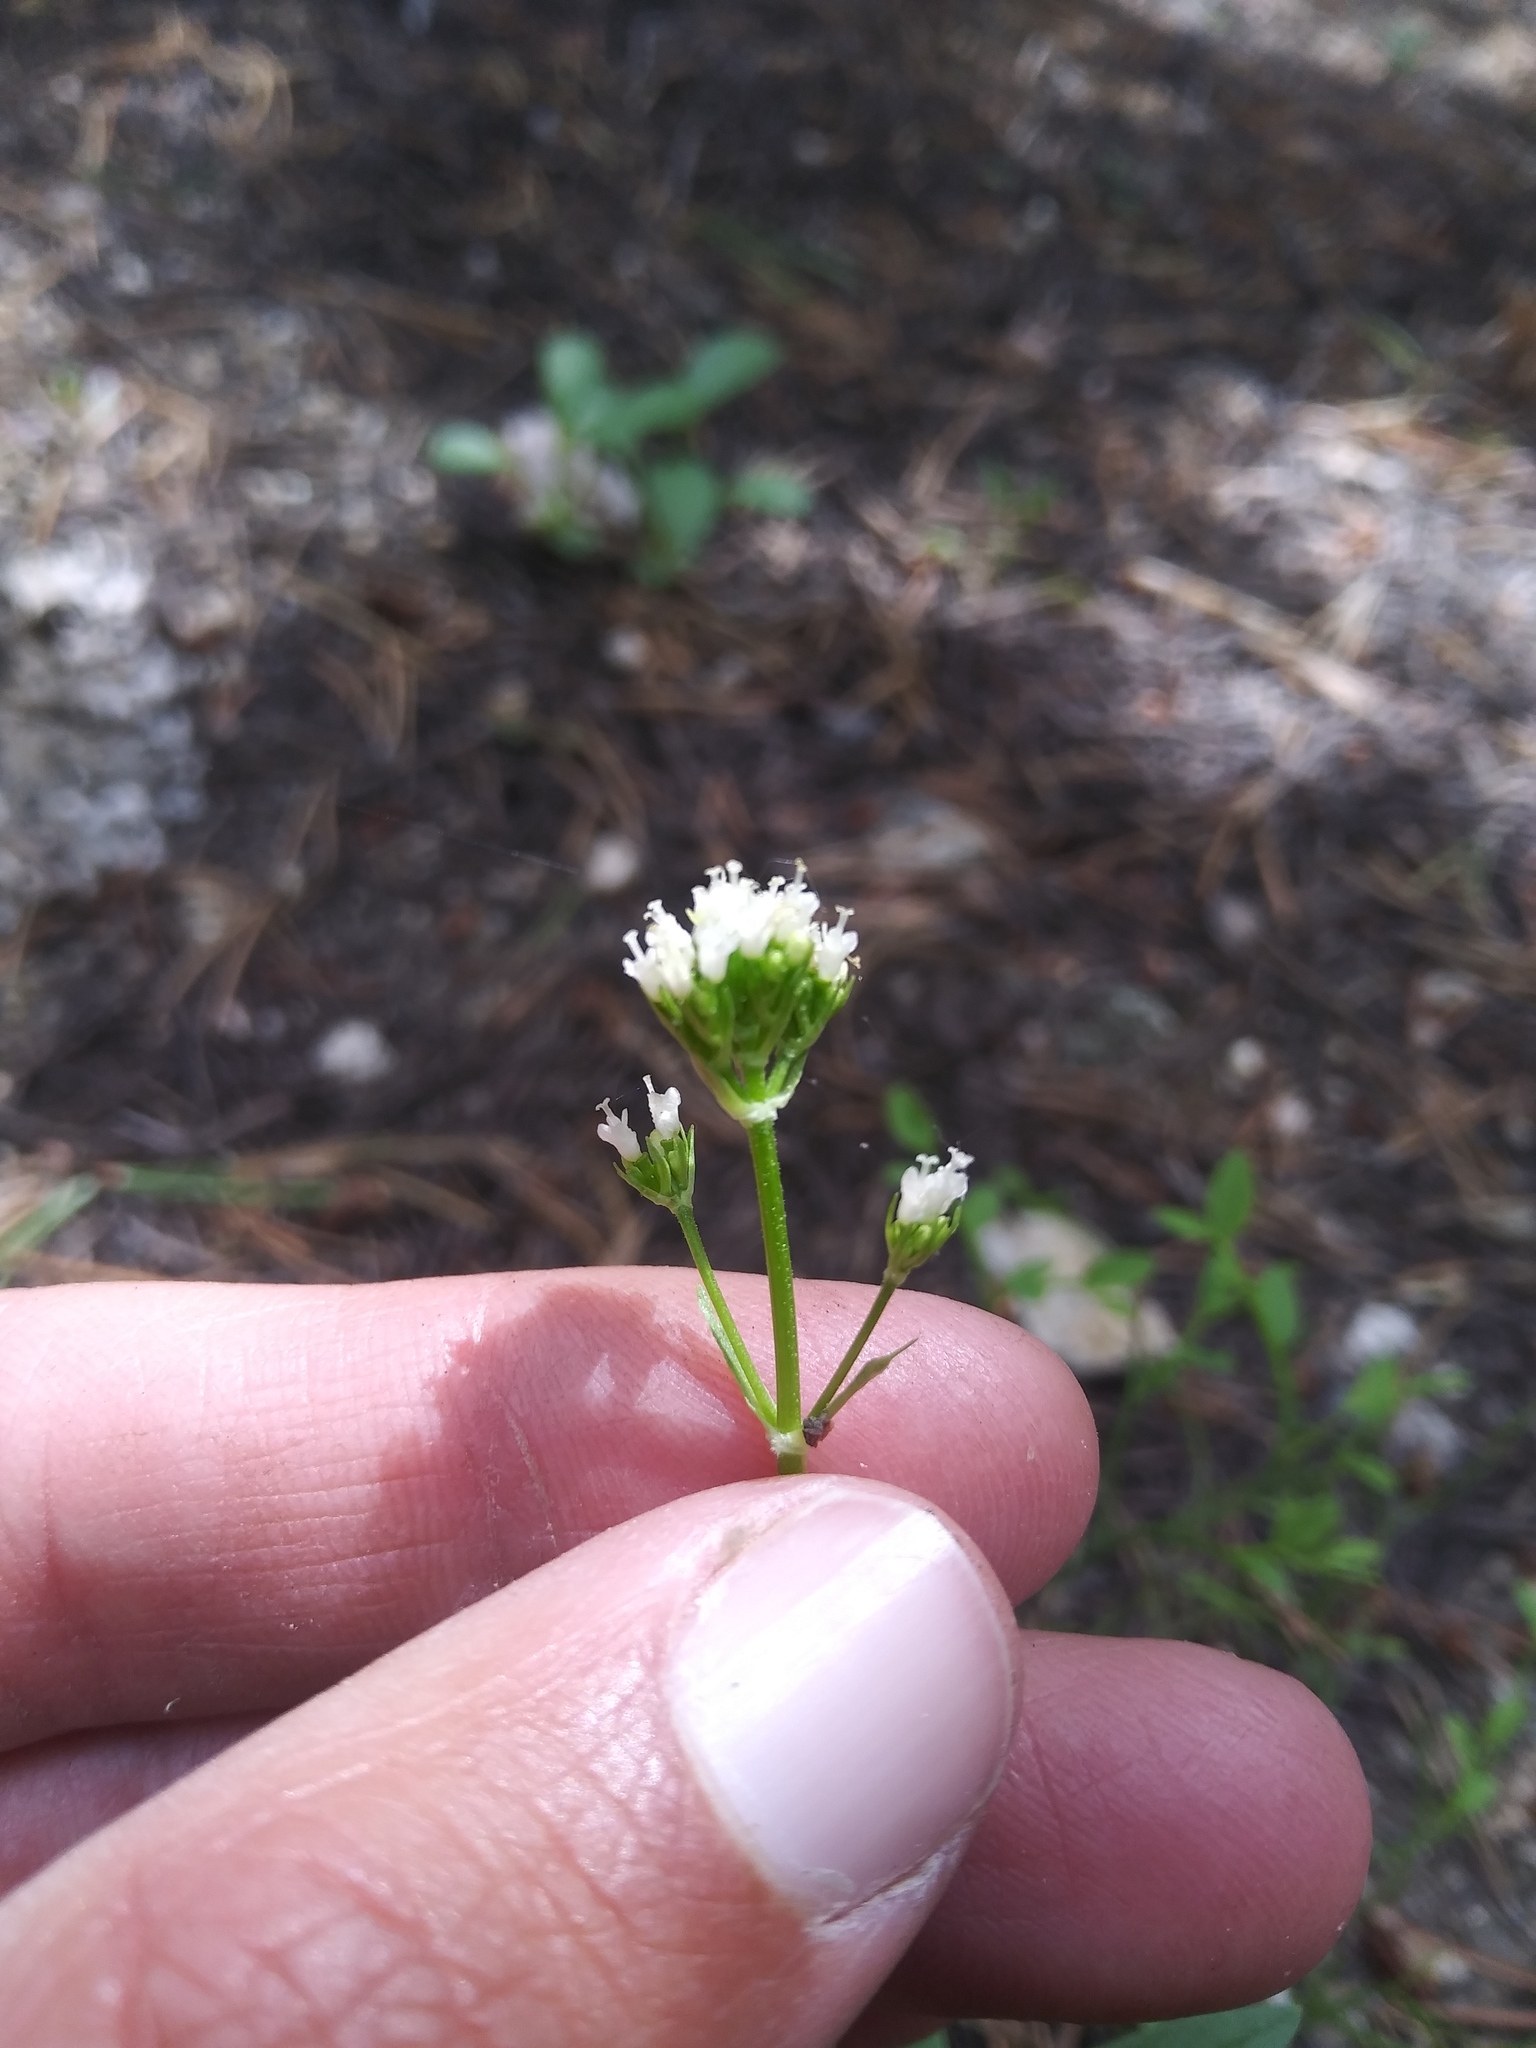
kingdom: Plantae
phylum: Tracheophyta
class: Magnoliopsida
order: Dipsacales
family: Caprifoliaceae
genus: Valeriana
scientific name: Valeriana dioica
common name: Marsh valerian
